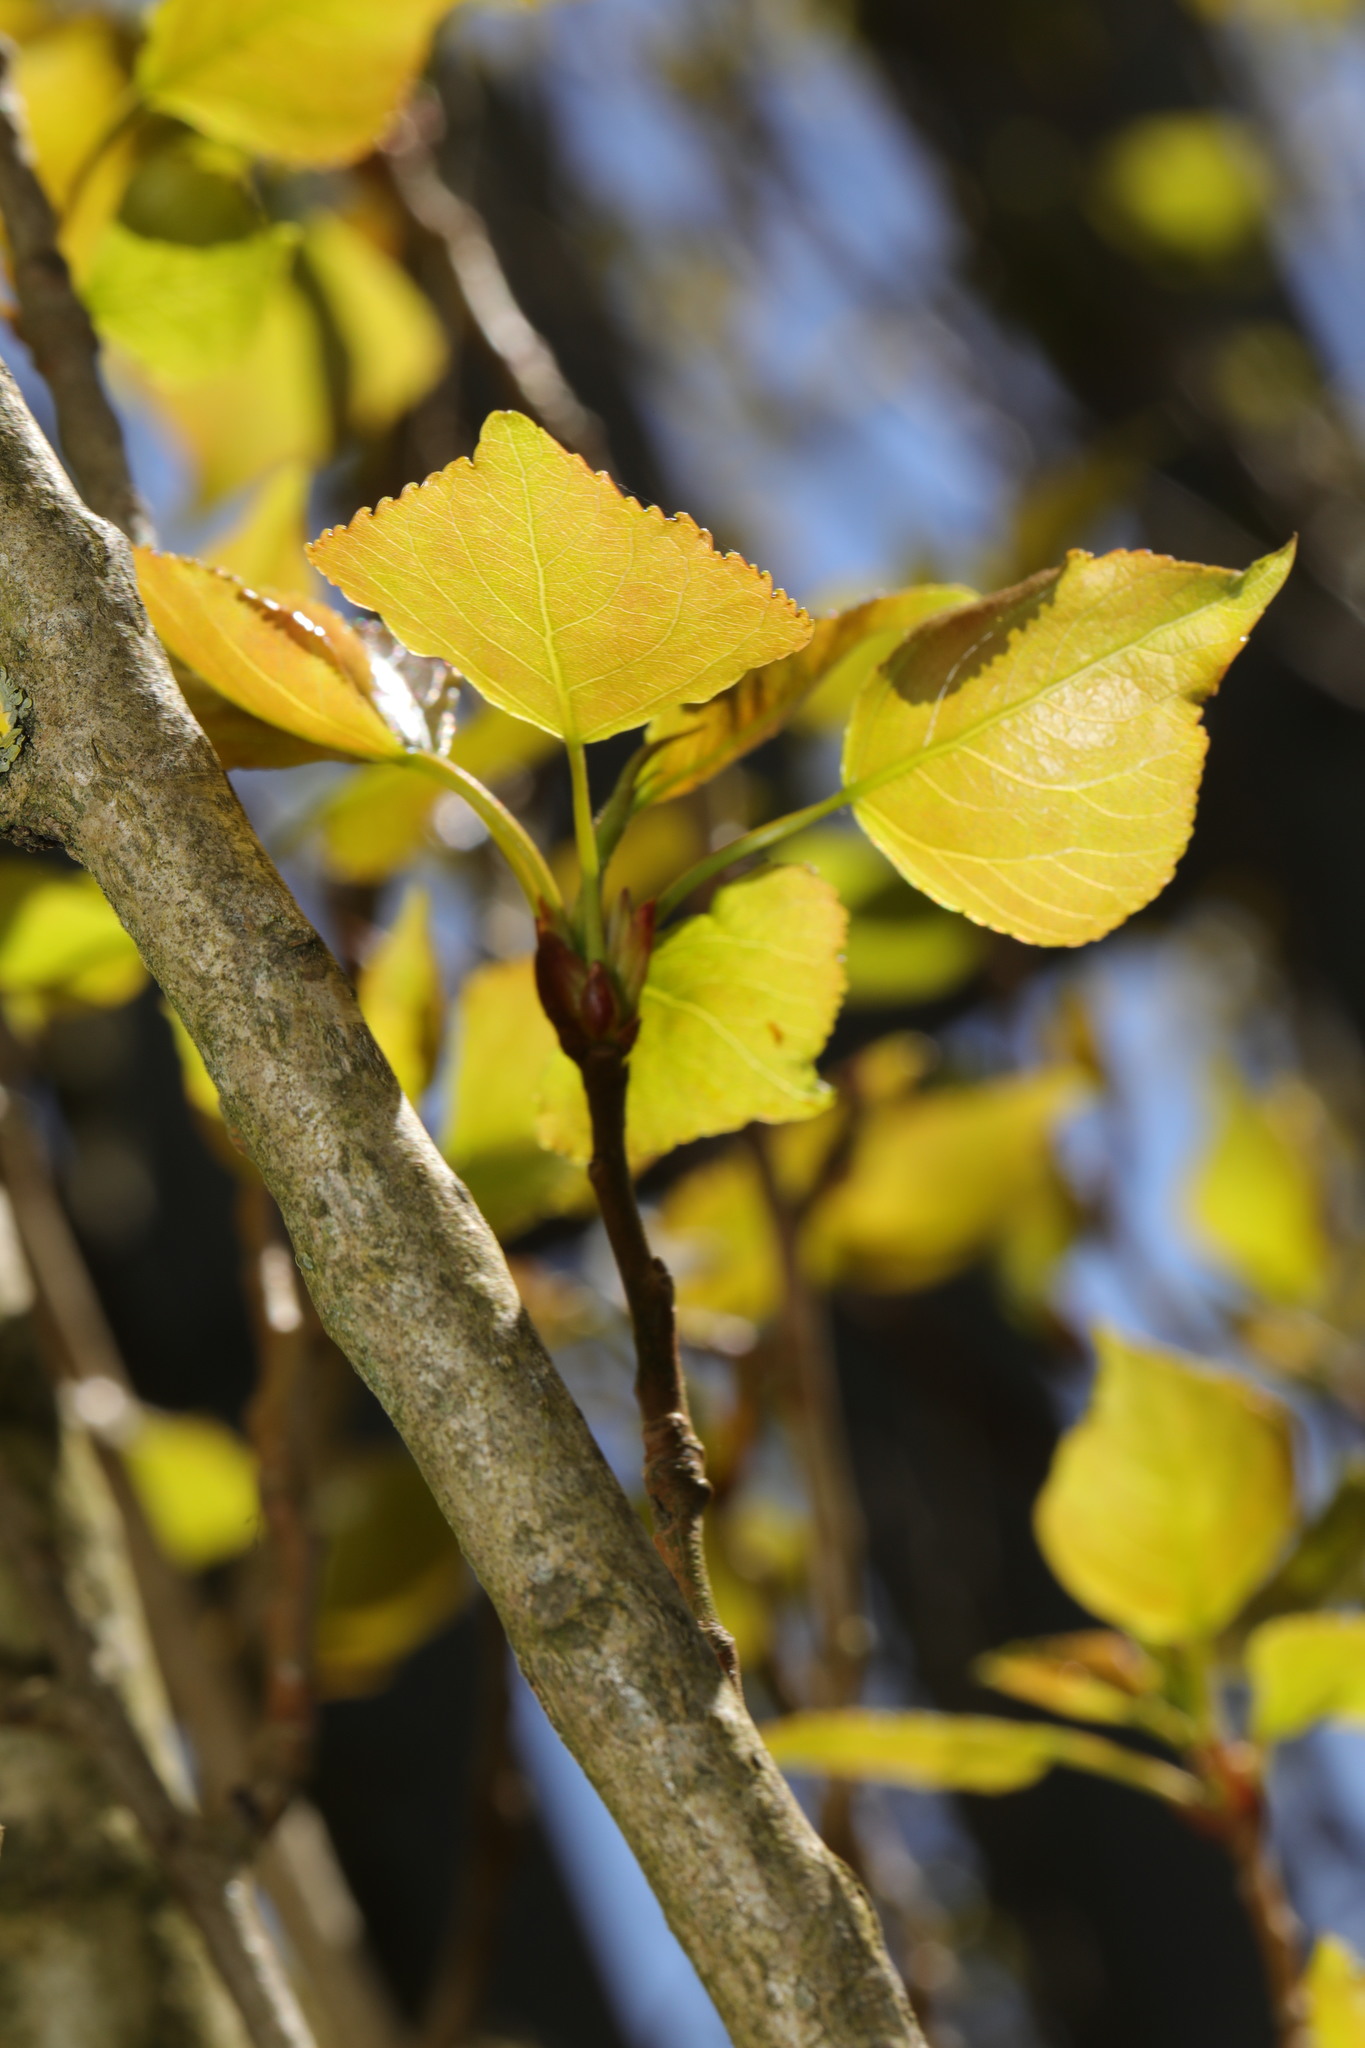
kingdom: Plantae
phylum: Tracheophyta
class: Magnoliopsida
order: Malpighiales
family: Salicaceae
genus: Populus
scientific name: Populus nigra
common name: Black poplar
